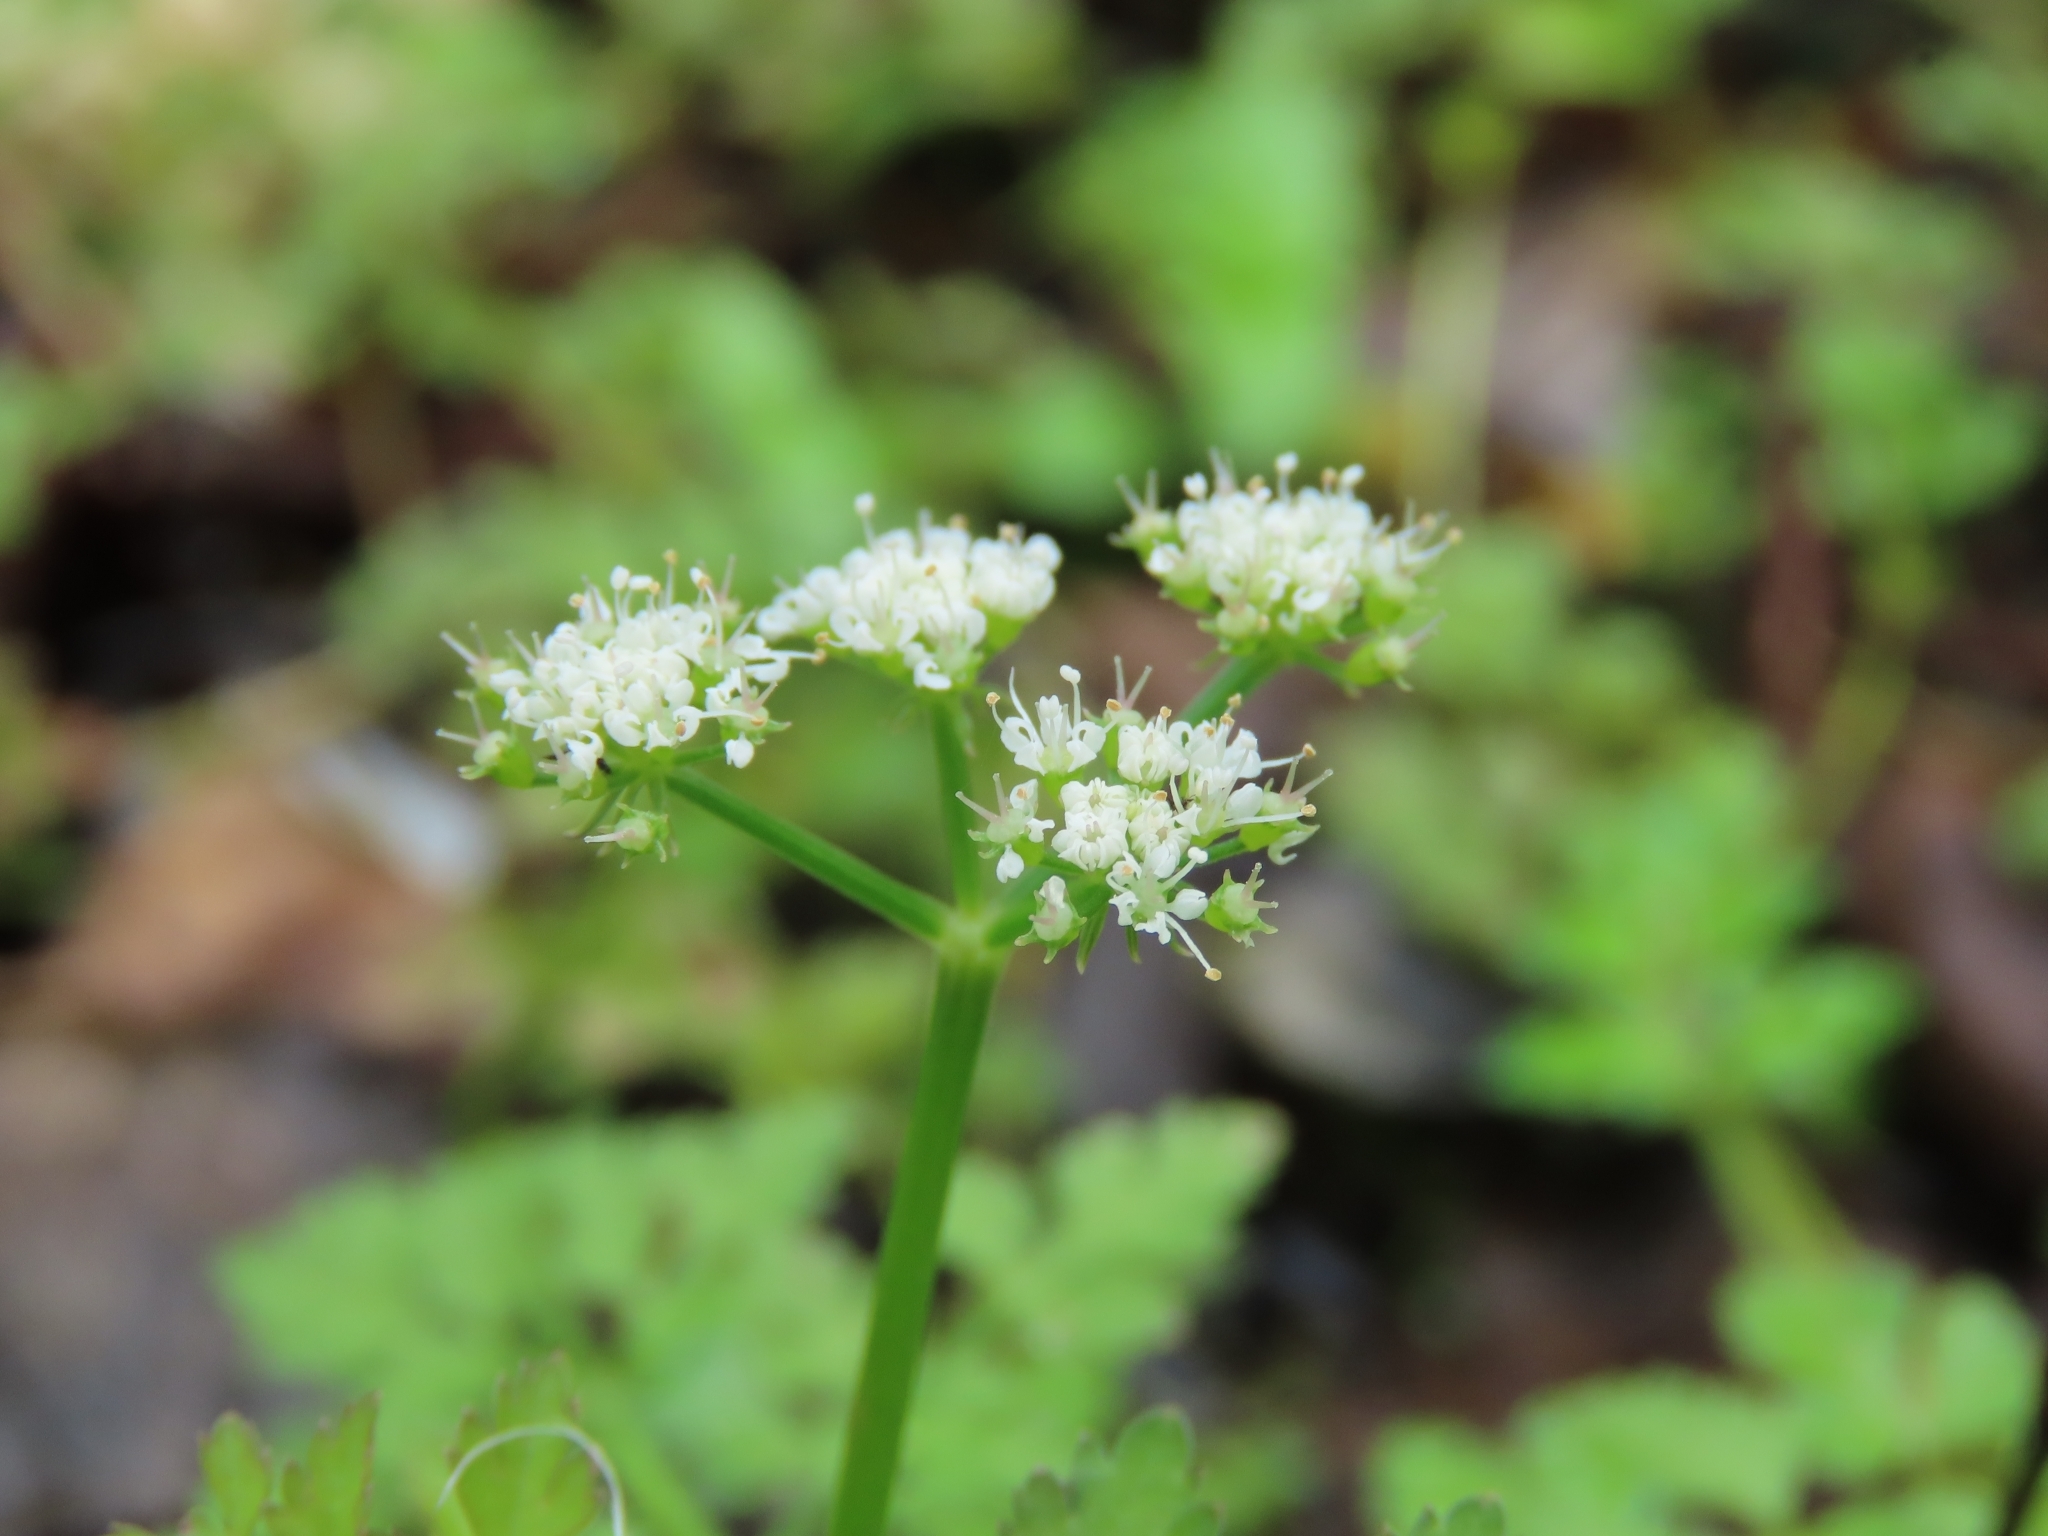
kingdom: Plantae
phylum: Tracheophyta
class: Magnoliopsida
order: Apiales
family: Apiaceae
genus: Oenanthe
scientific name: Oenanthe javanica
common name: Java water-dropwort
